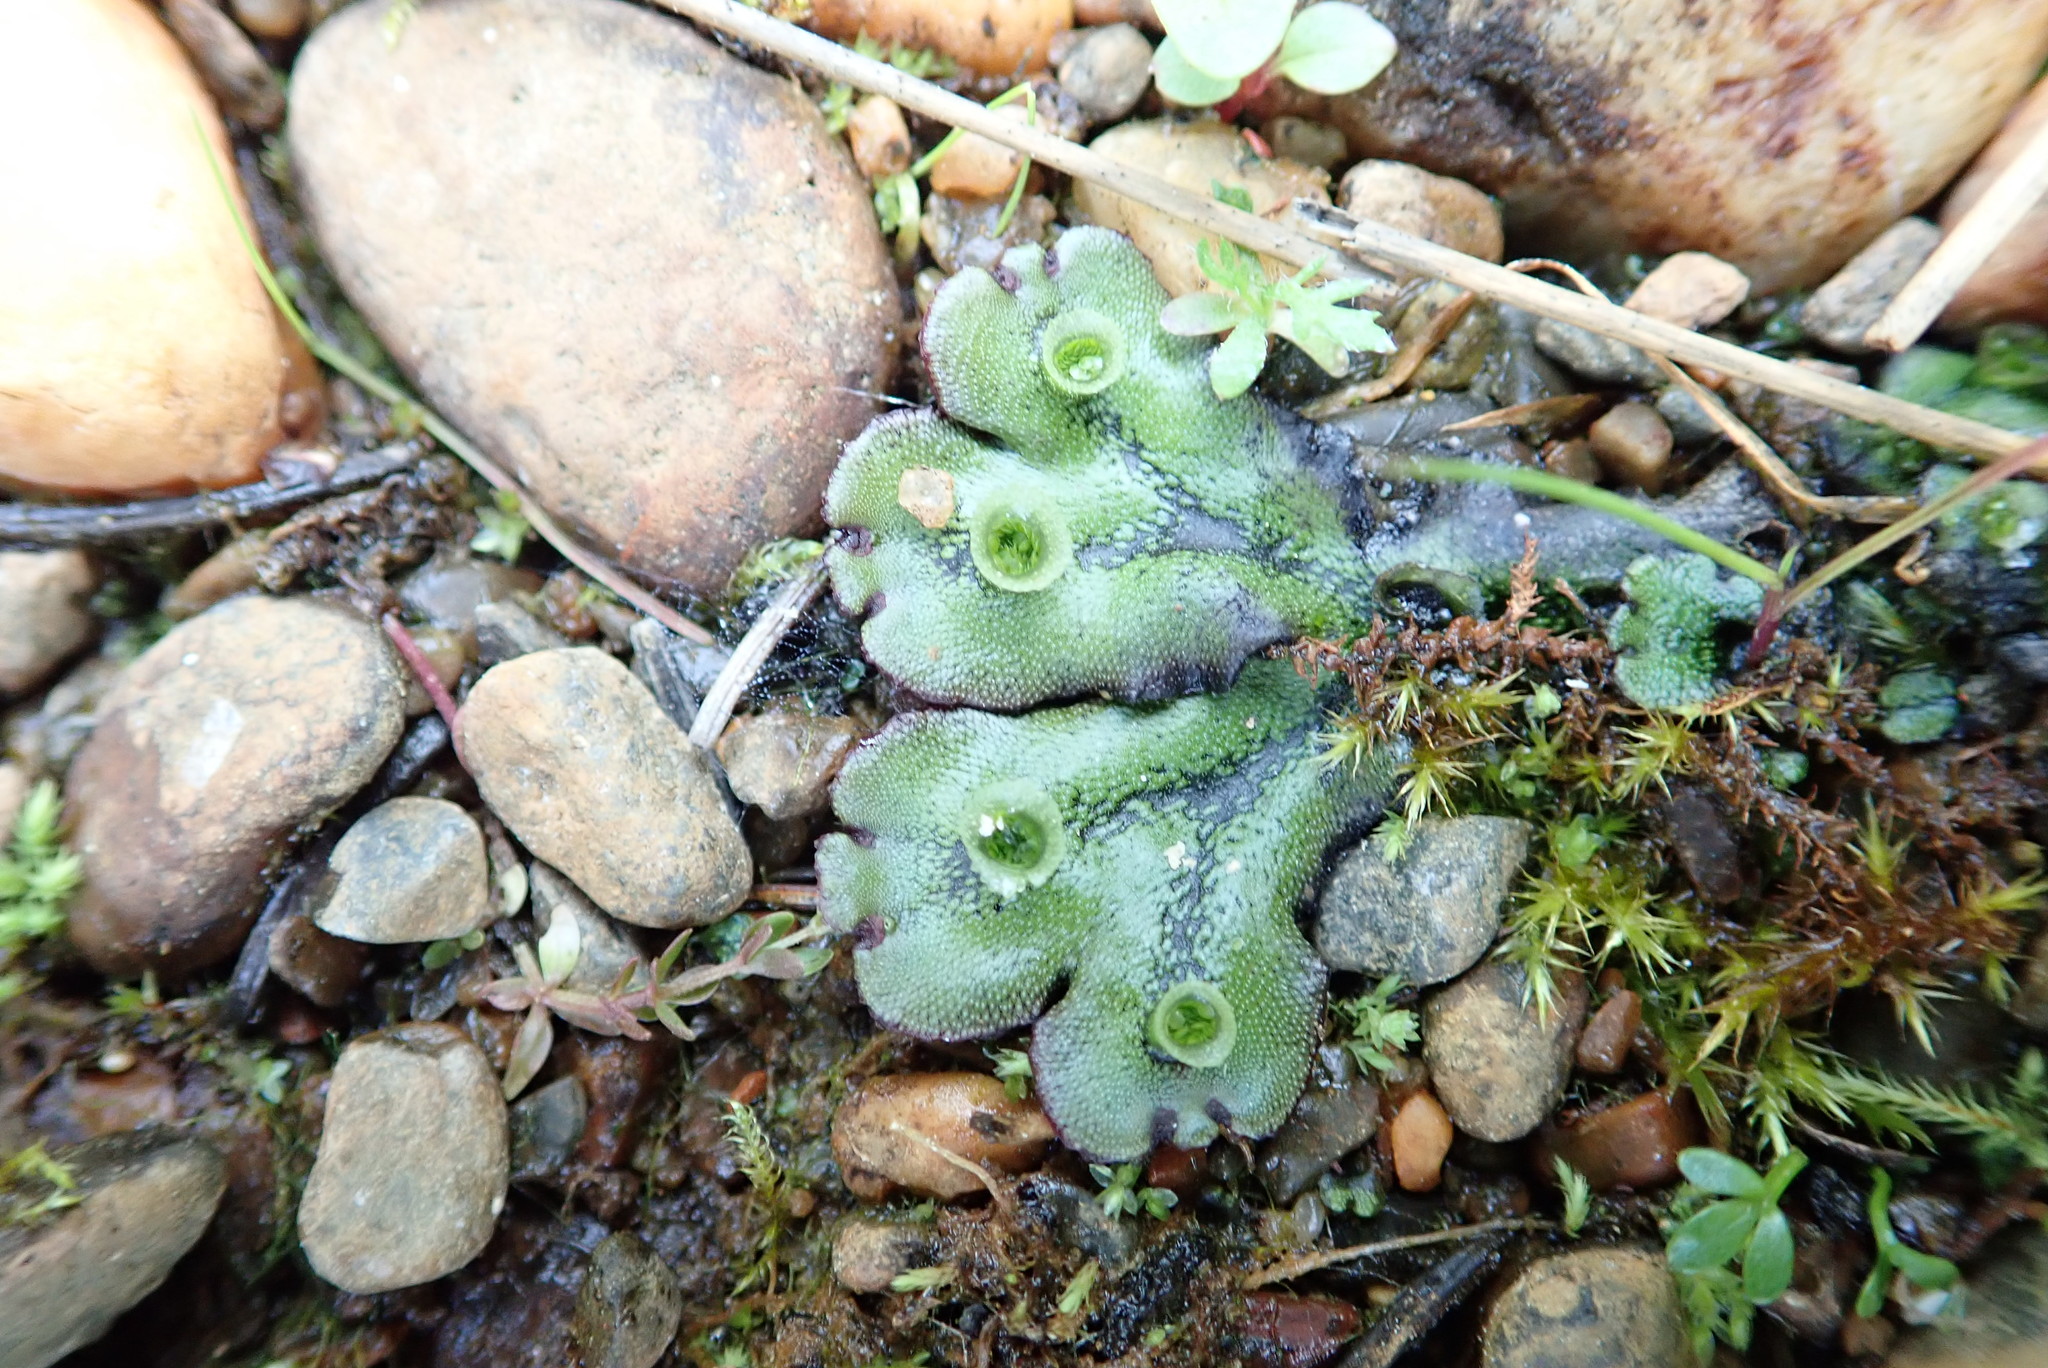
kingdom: Plantae
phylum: Marchantiophyta
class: Marchantiopsida
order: Marchantiales
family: Marchantiaceae
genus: Marchantia
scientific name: Marchantia polymorpha
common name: Common liverwort
